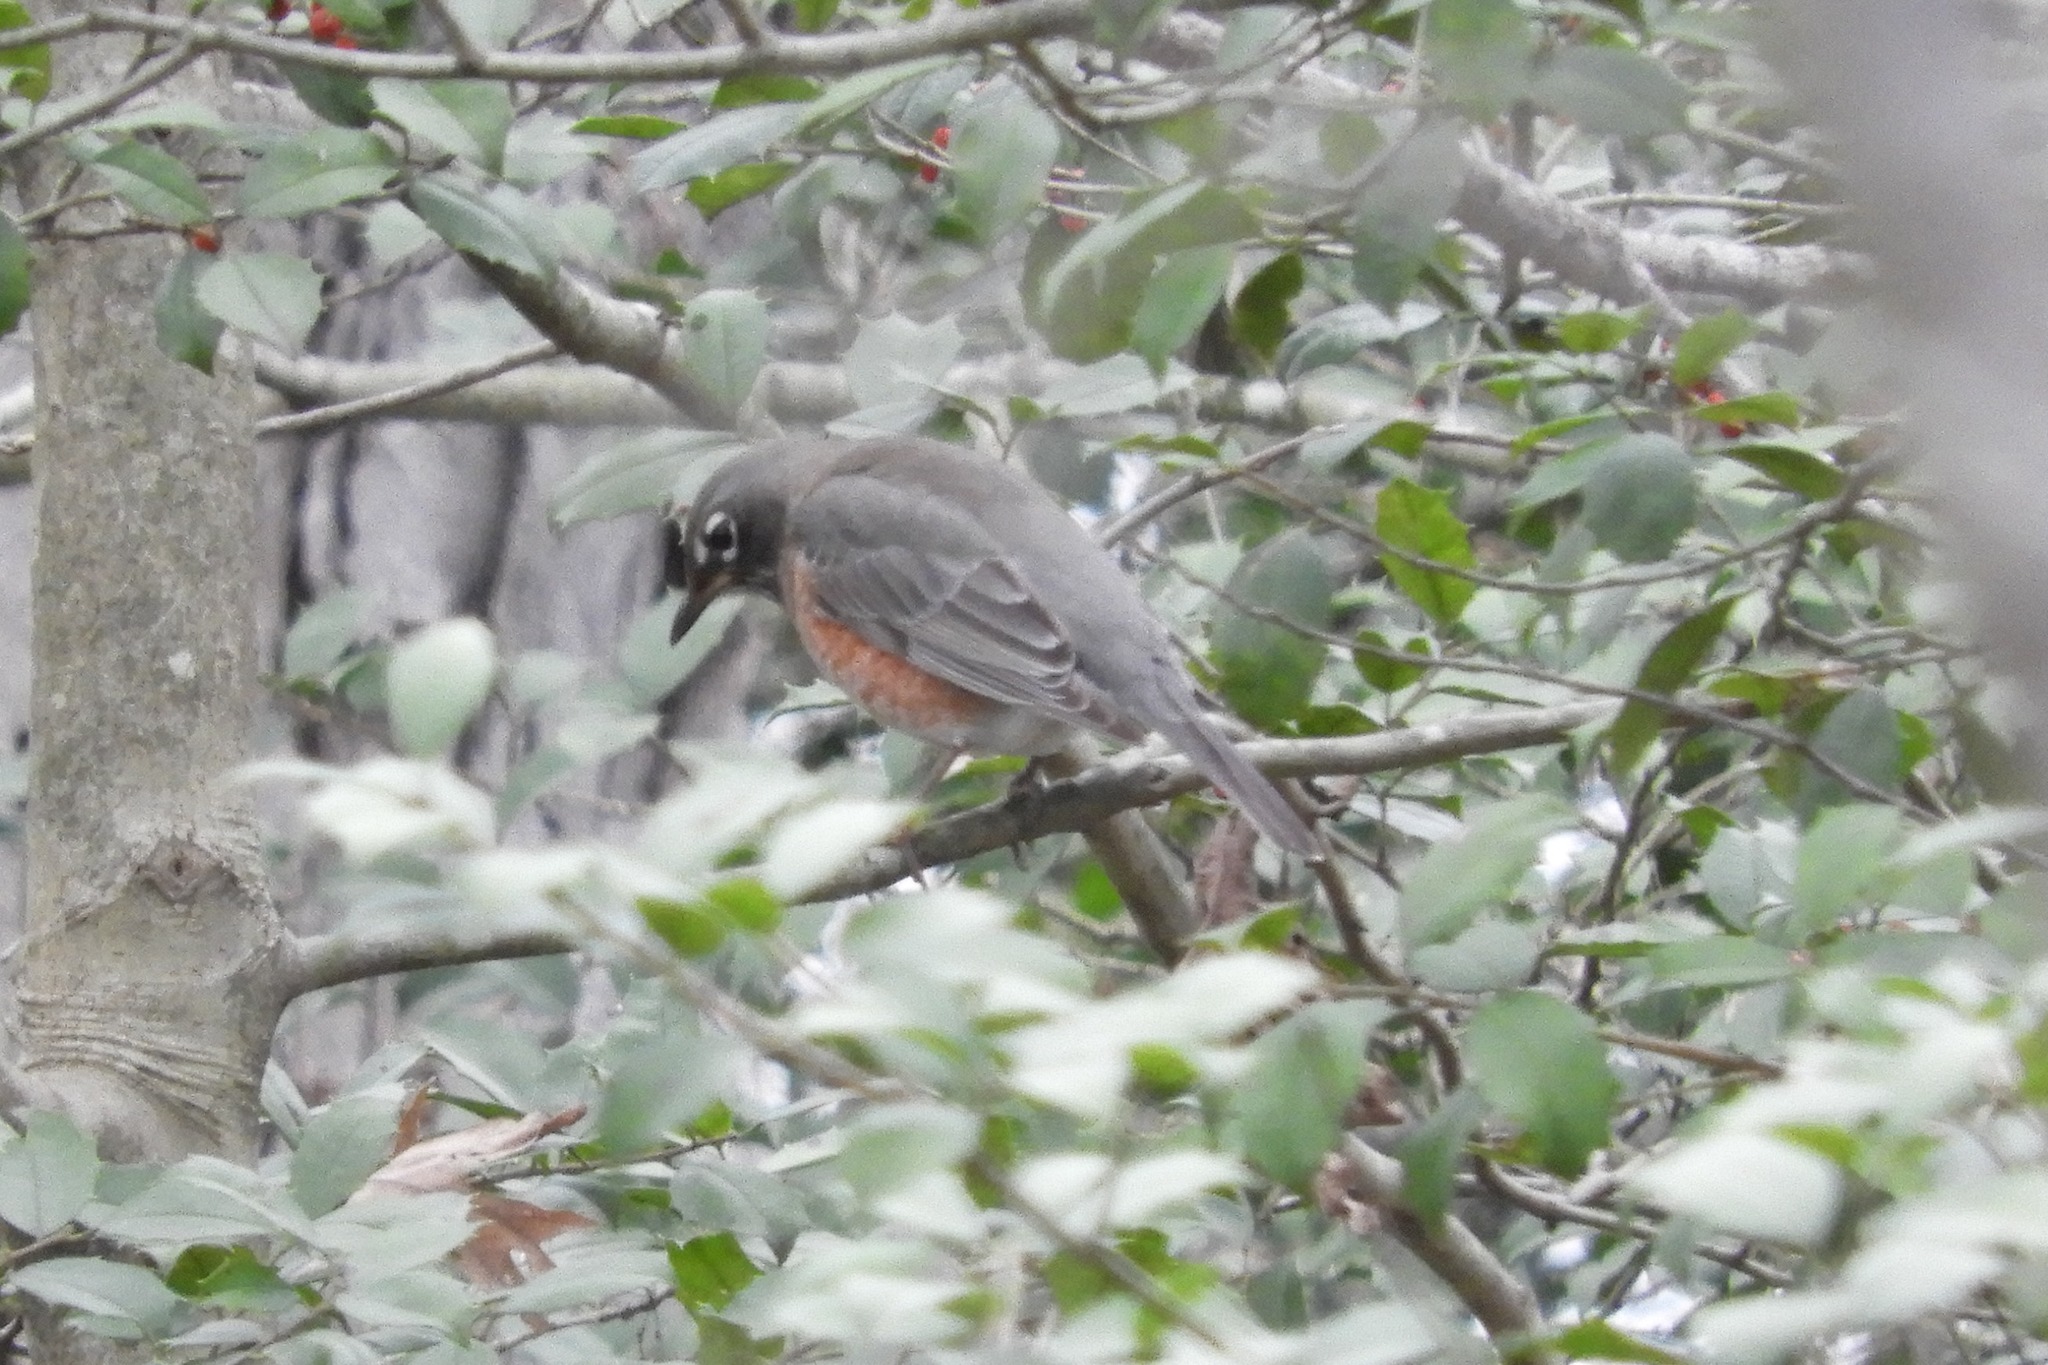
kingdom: Animalia
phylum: Chordata
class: Aves
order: Passeriformes
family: Turdidae
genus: Turdus
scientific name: Turdus migratorius
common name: American robin
